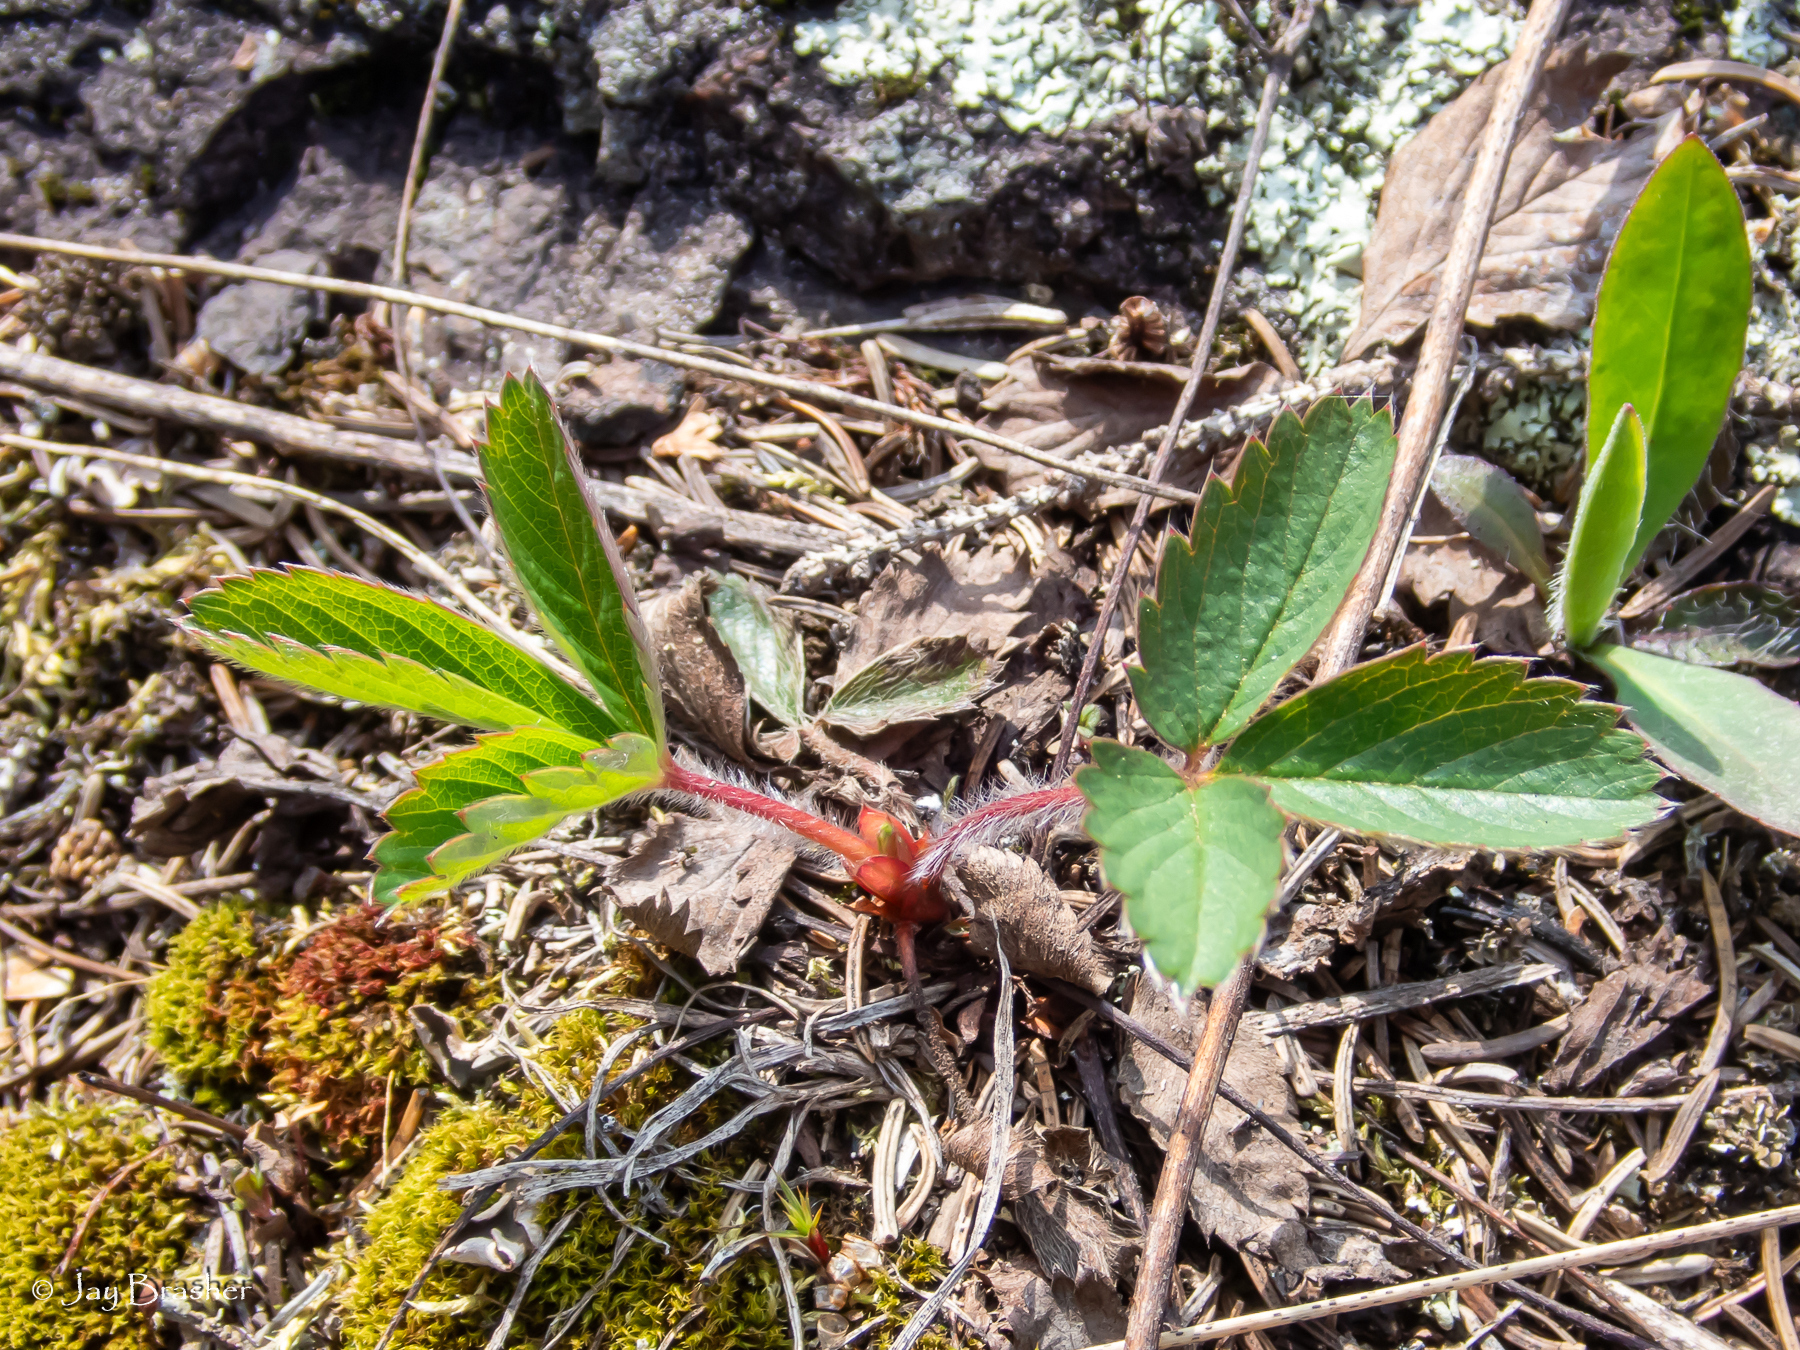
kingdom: Plantae
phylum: Tracheophyta
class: Magnoliopsida
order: Rosales
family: Rosaceae
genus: Fragaria
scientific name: Fragaria virginiana
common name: Thickleaved wild strawberry
